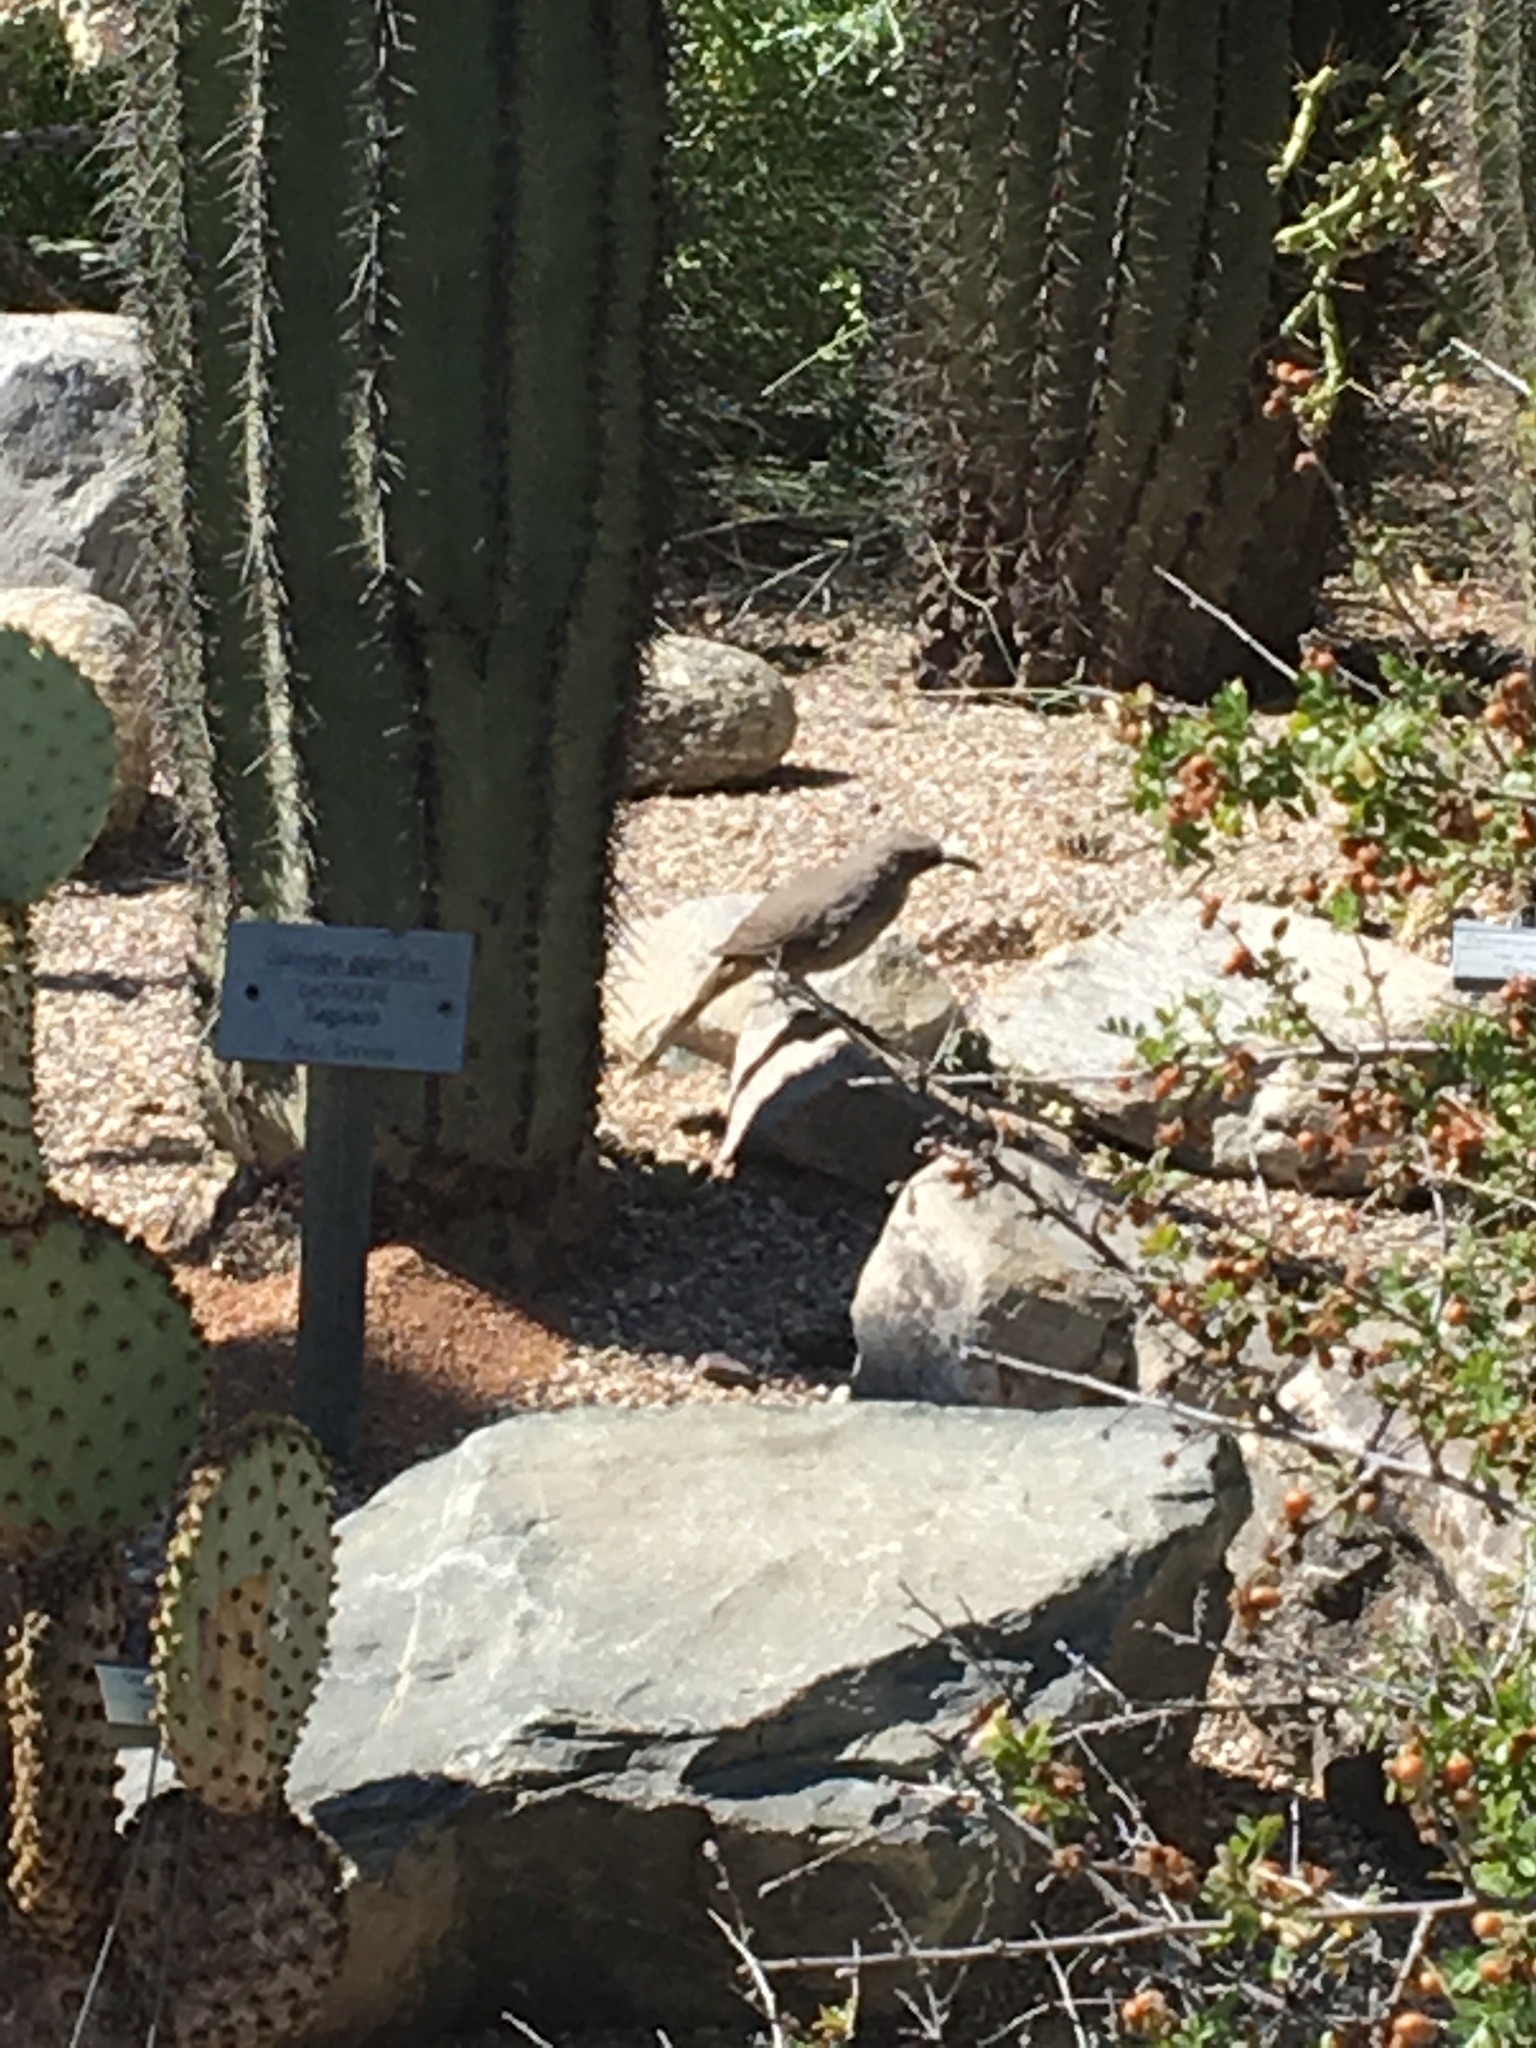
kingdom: Animalia
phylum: Chordata
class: Aves
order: Passeriformes
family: Mimidae
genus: Toxostoma
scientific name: Toxostoma curvirostre
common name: Curve-billed thrasher
